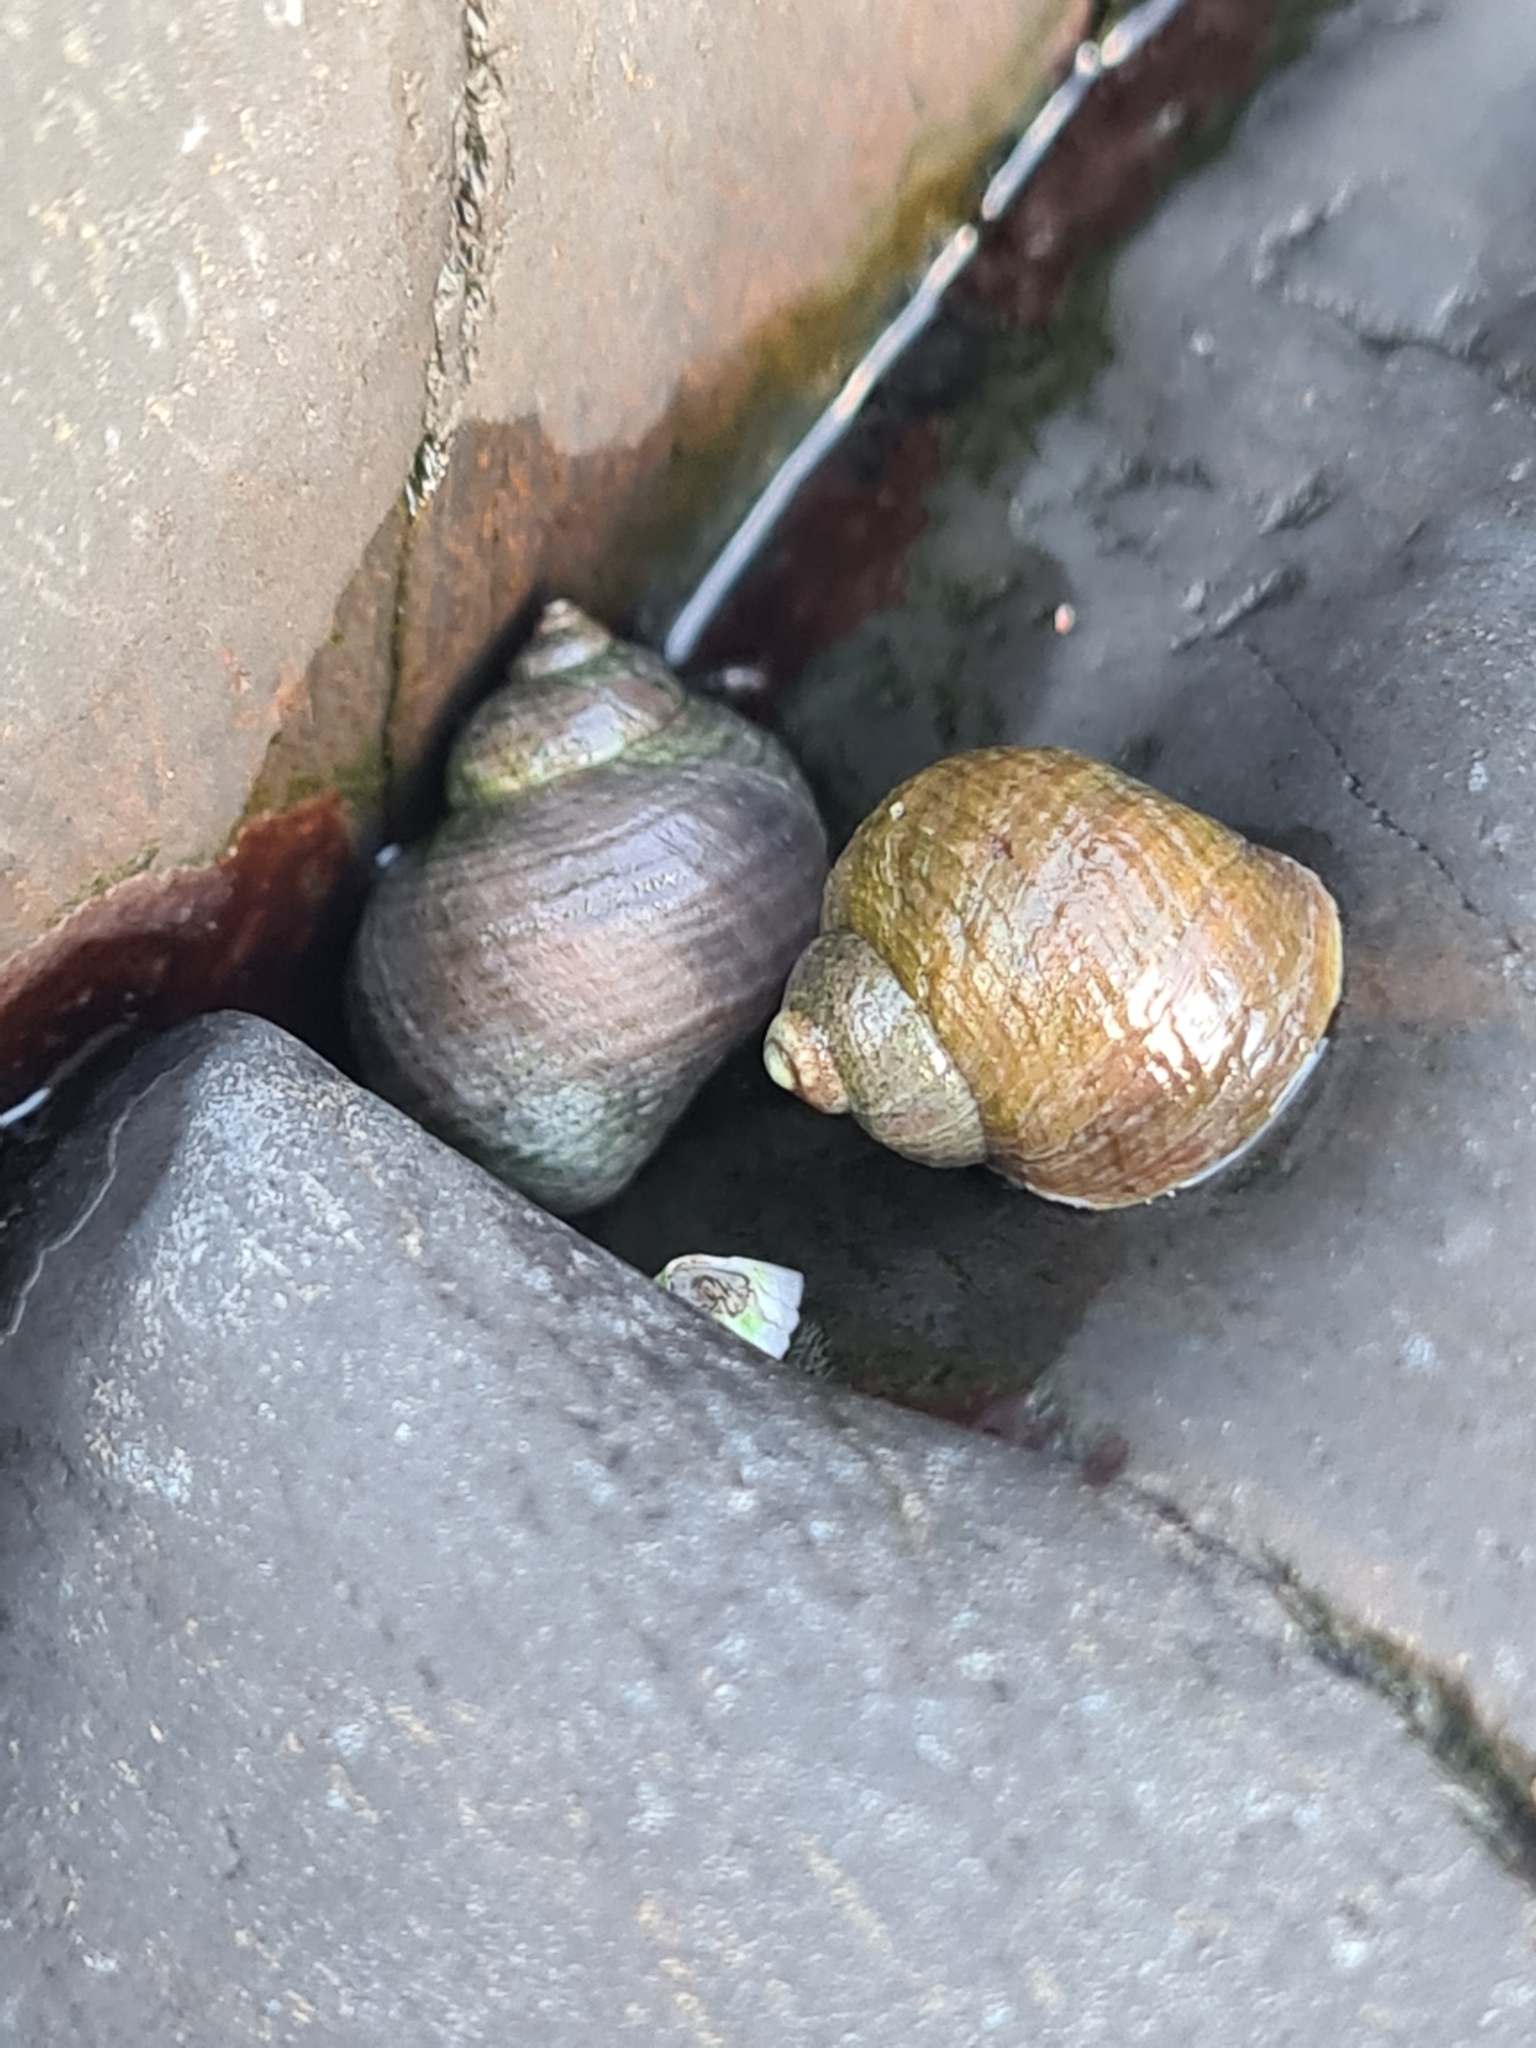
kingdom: Animalia
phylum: Mollusca
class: Gastropoda
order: Littorinimorpha
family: Littorinidae
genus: Littorina
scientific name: Littorina saxatilis
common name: Black-lined periwinkle
